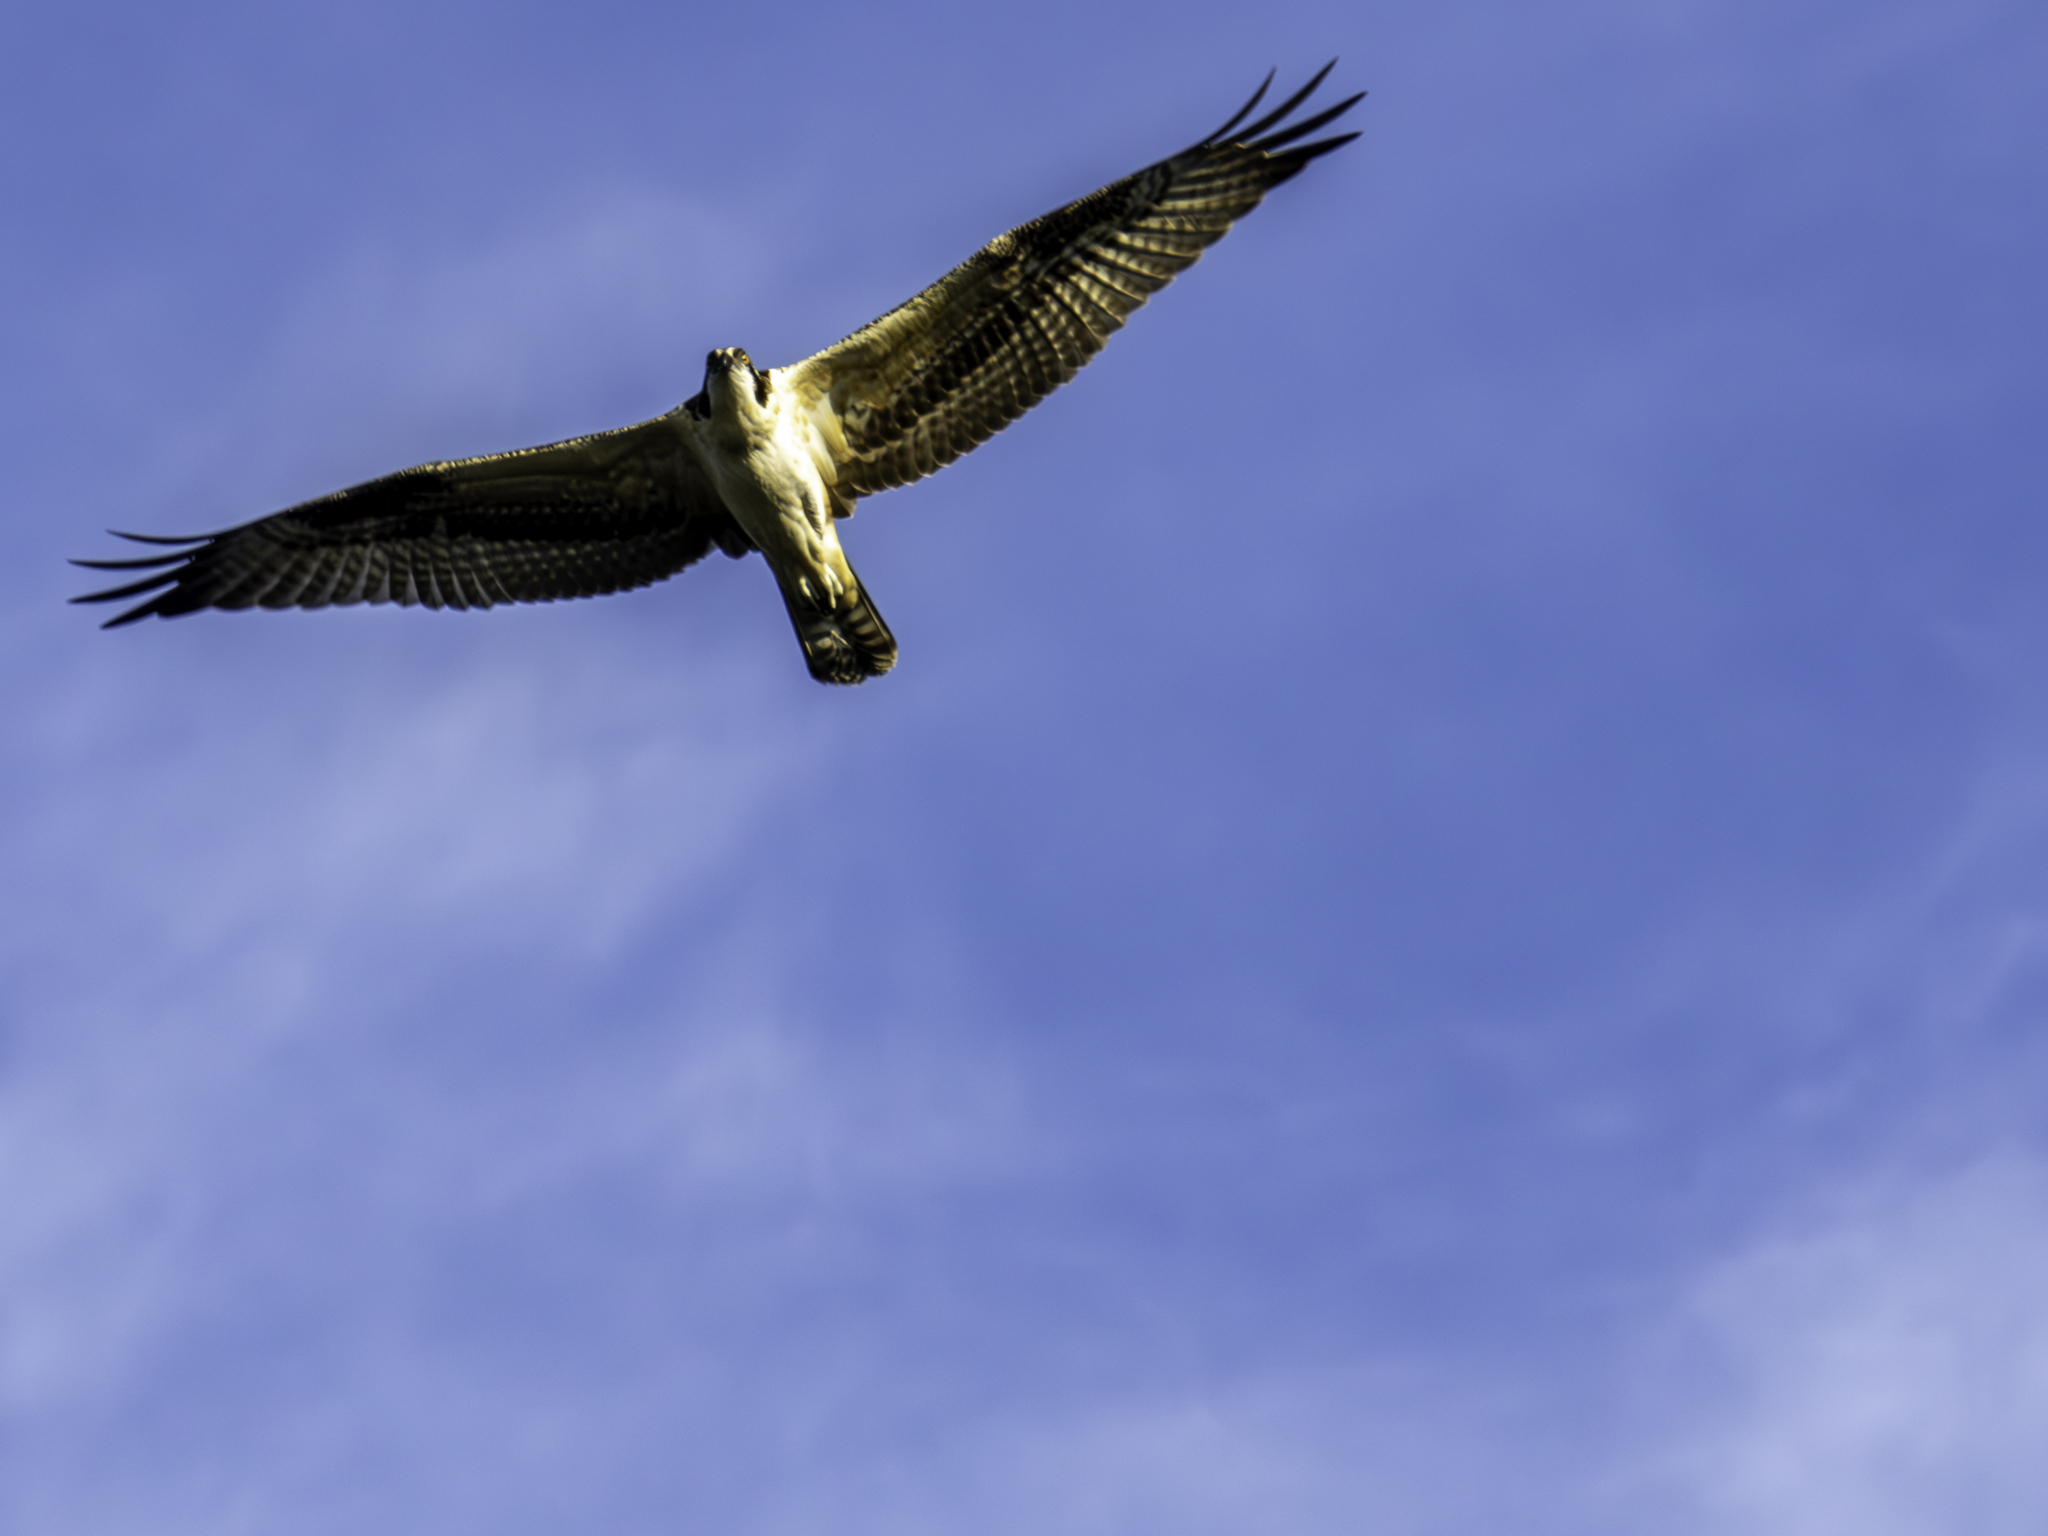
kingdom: Animalia
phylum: Chordata
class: Aves
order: Accipitriformes
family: Pandionidae
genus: Pandion
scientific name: Pandion haliaetus
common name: Osprey
